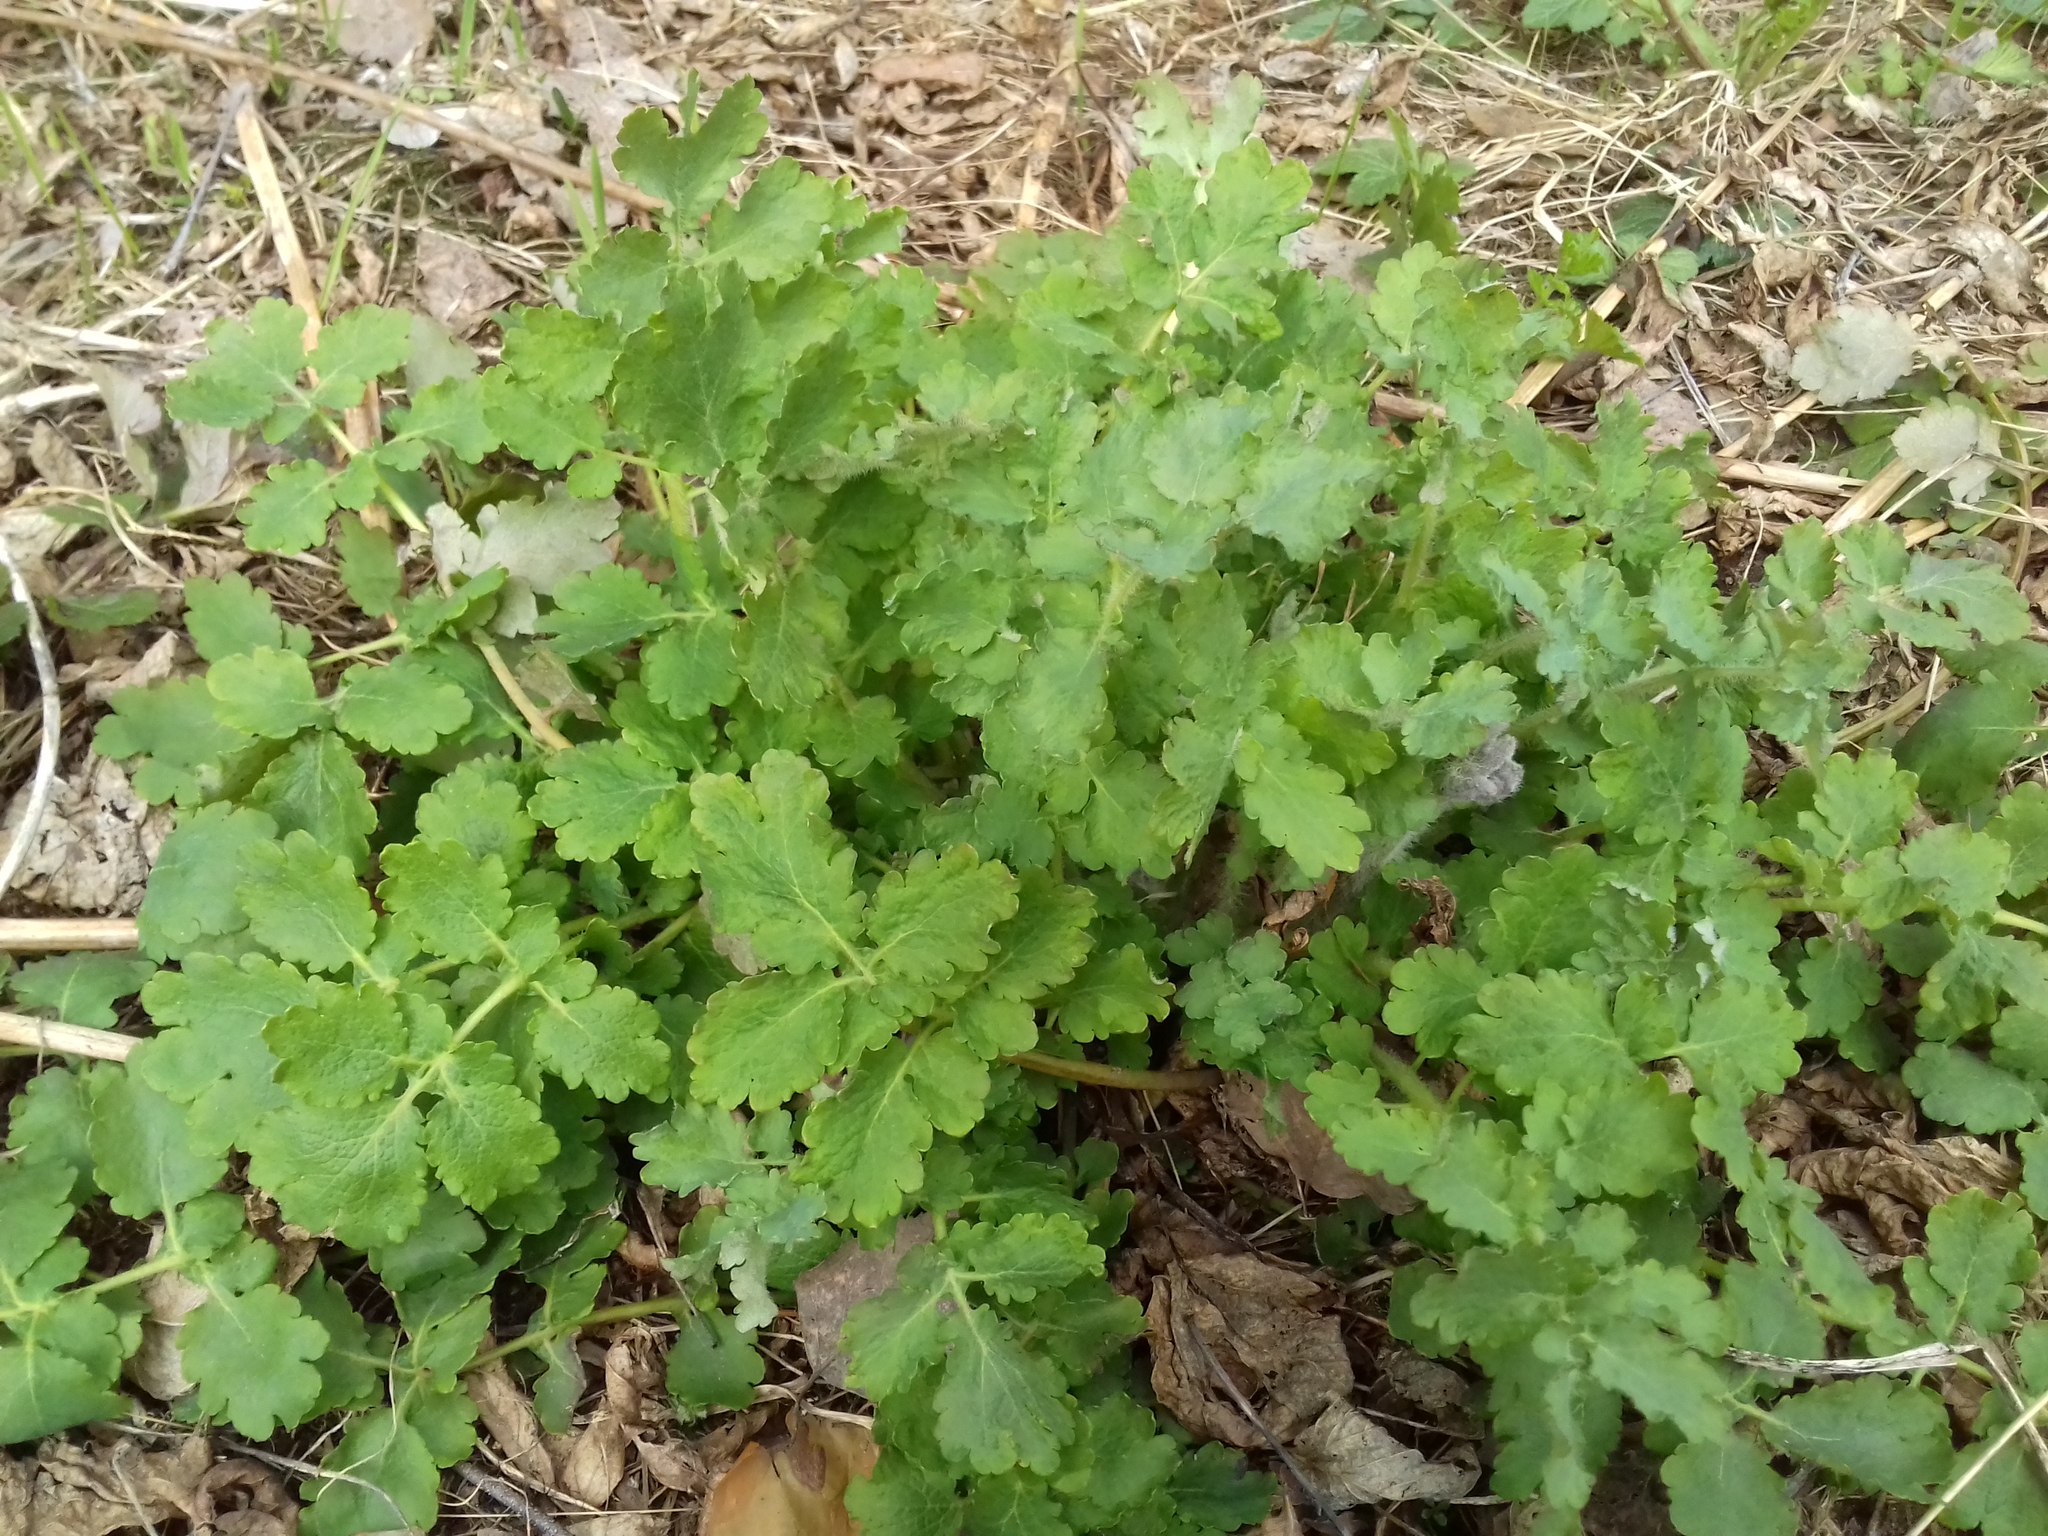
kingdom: Plantae
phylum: Tracheophyta
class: Magnoliopsida
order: Ranunculales
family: Papaveraceae
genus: Chelidonium
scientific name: Chelidonium majus
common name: Greater celandine
